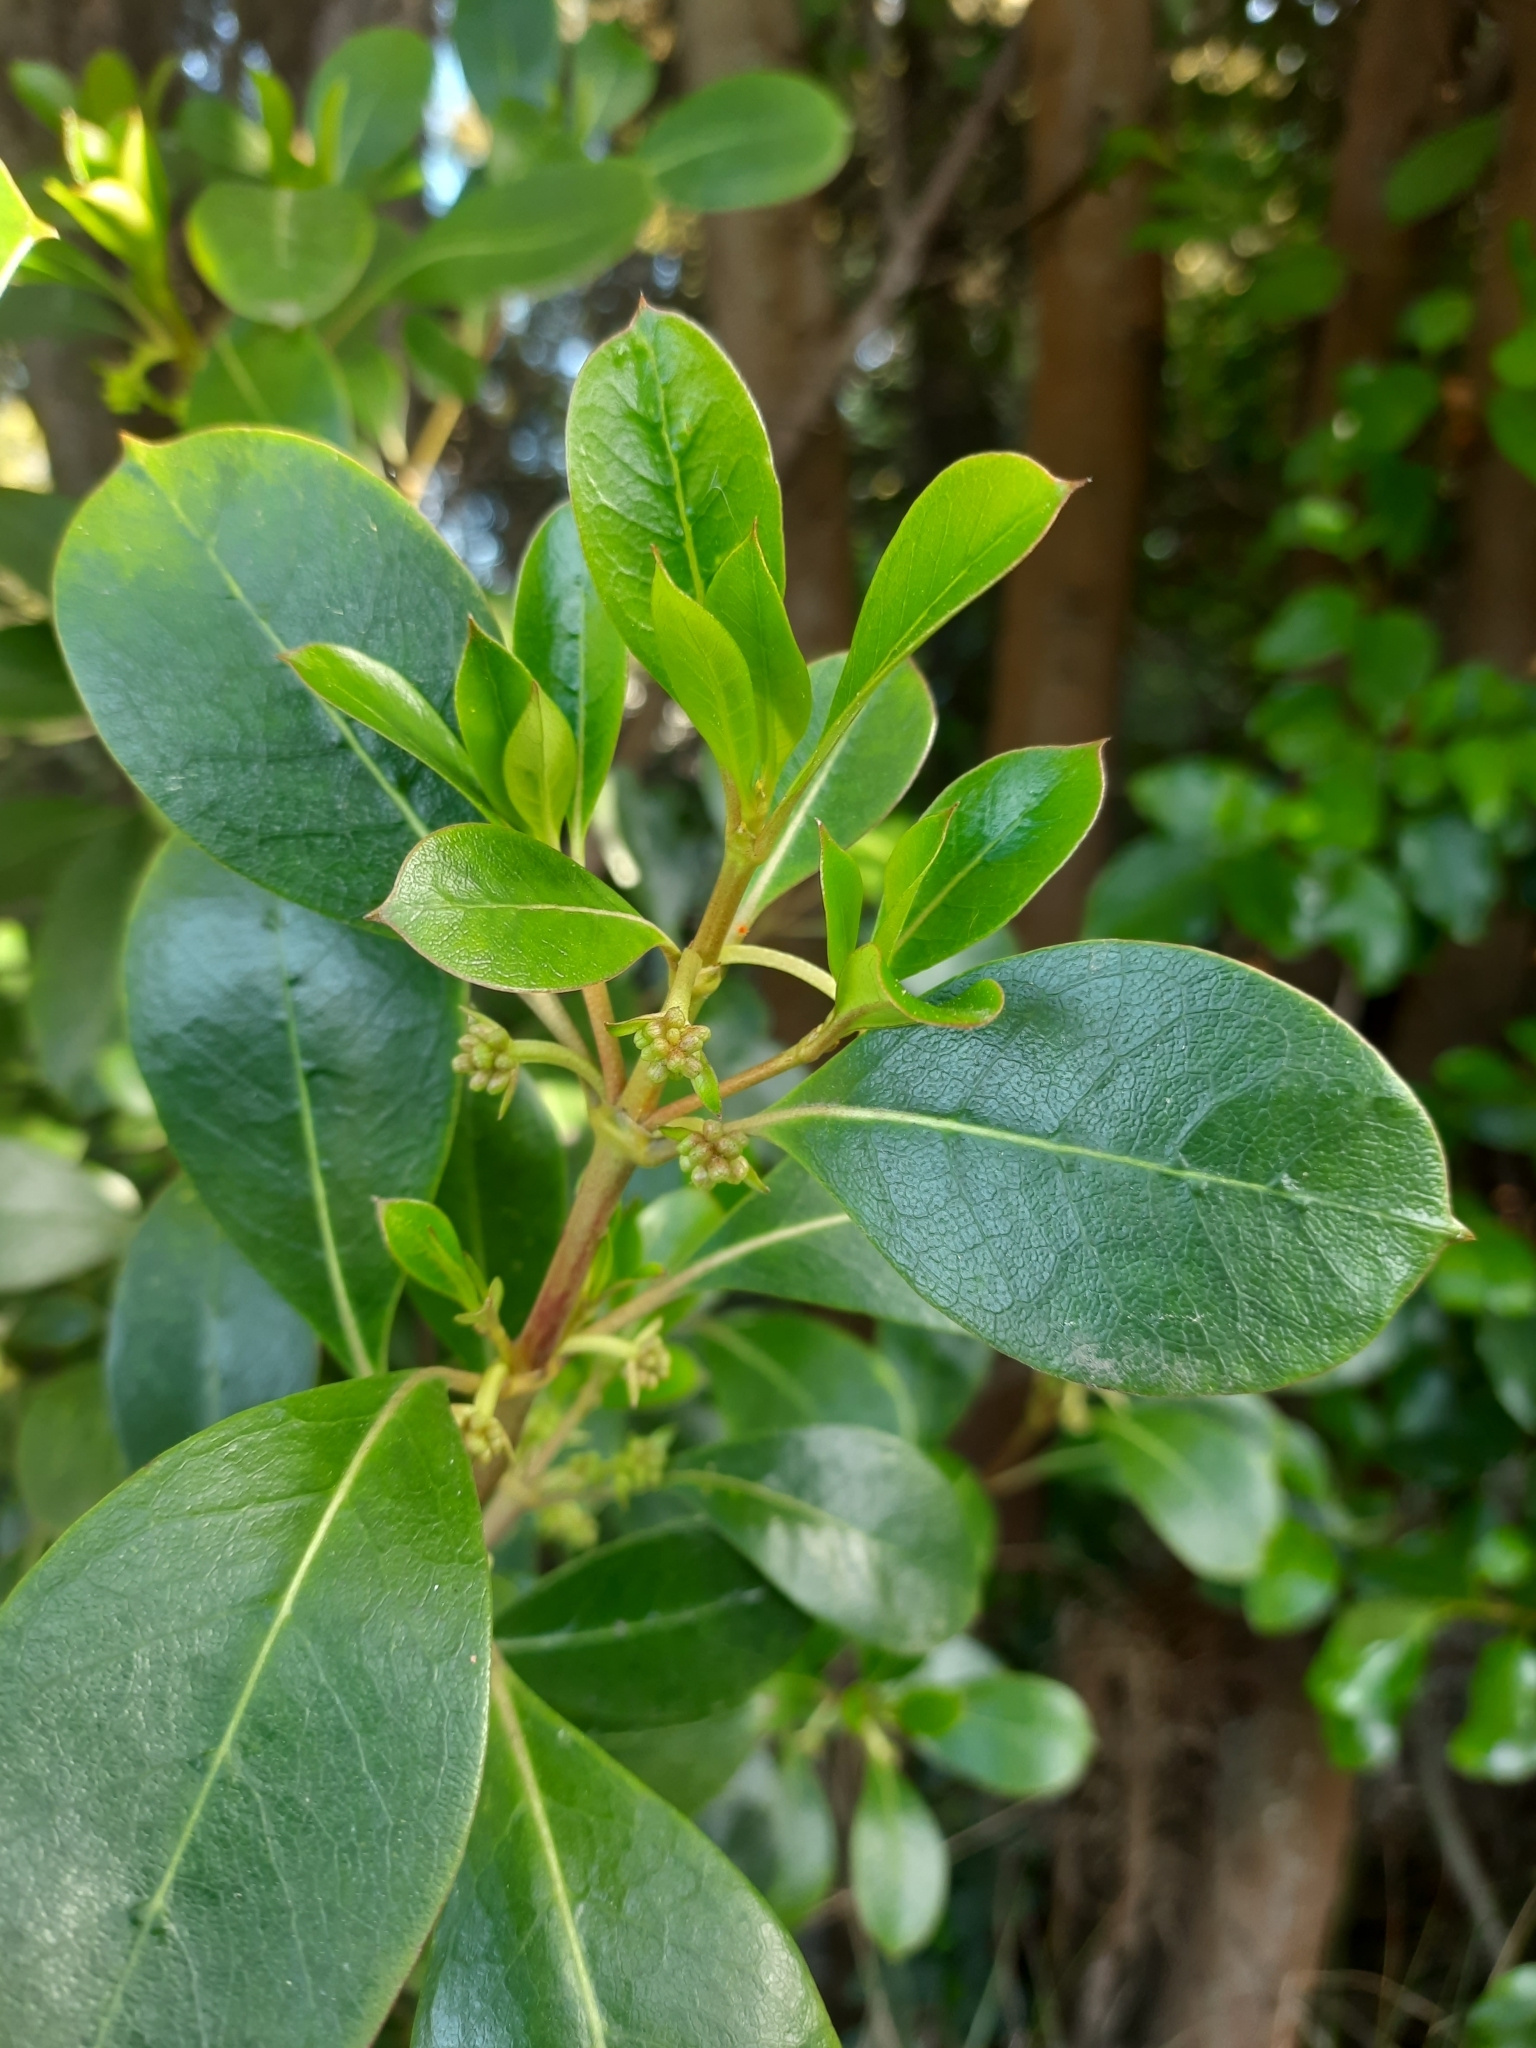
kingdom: Plantae
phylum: Tracheophyta
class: Magnoliopsida
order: Gentianales
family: Rubiaceae
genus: Coprosma
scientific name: Coprosma lucida
